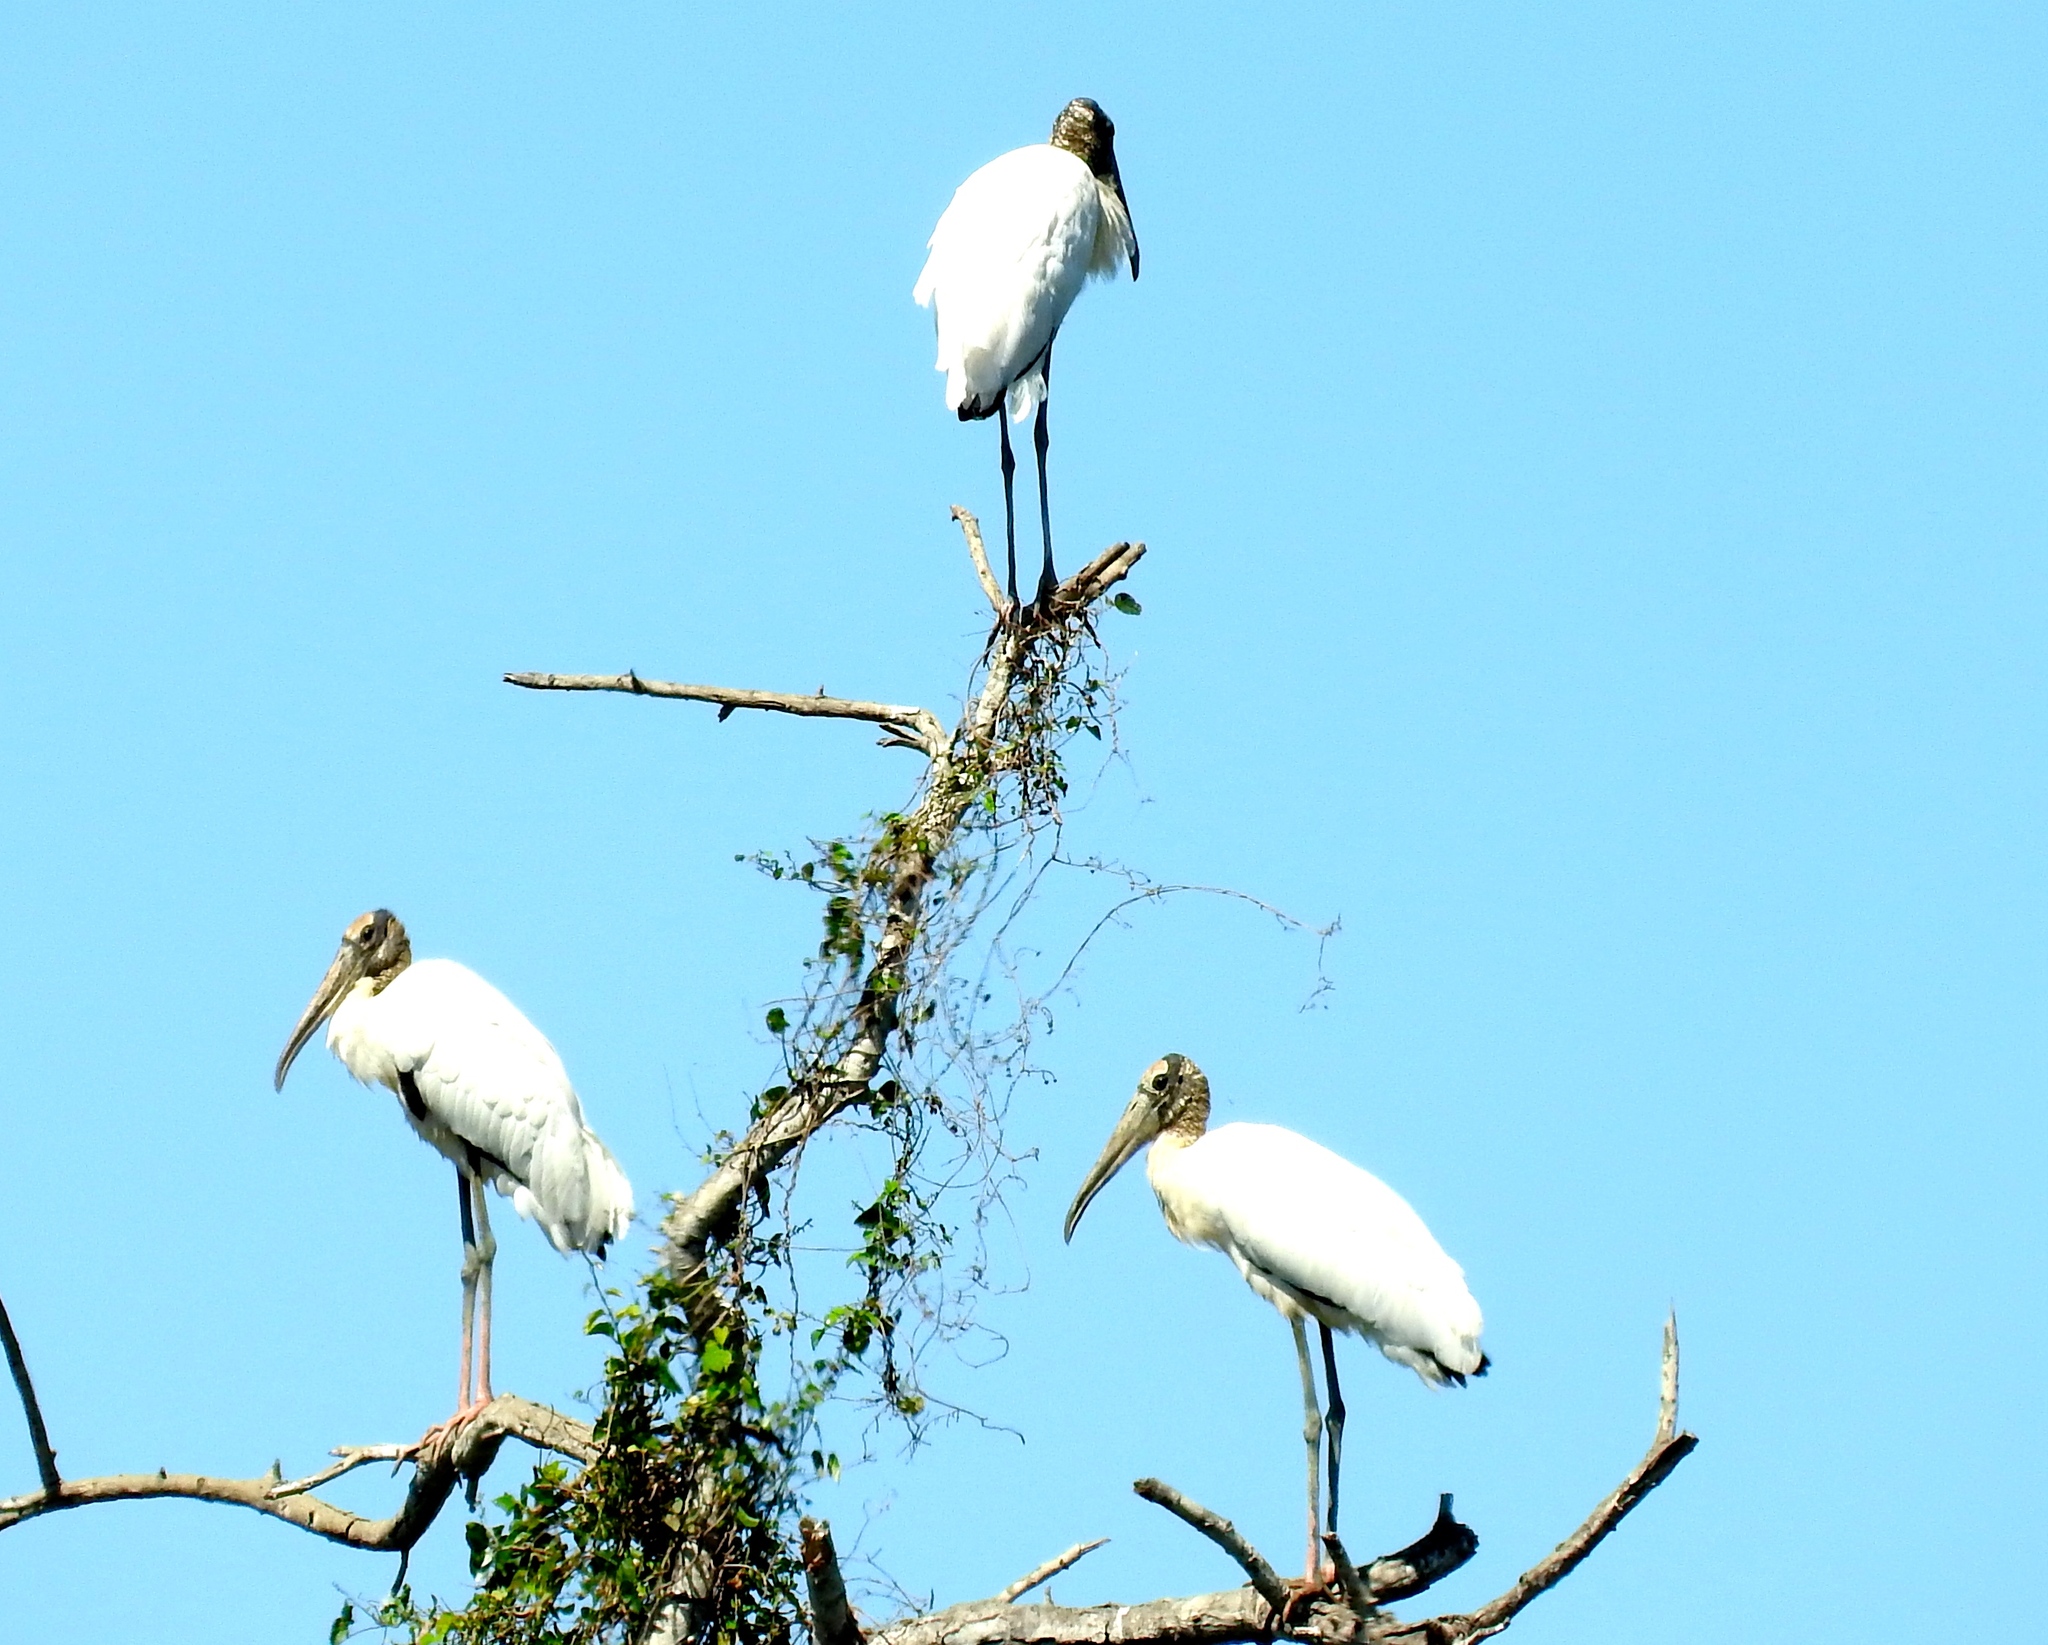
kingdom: Animalia
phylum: Chordata
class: Aves
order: Ciconiiformes
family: Ciconiidae
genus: Mycteria
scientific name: Mycteria americana
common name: Wood stork
